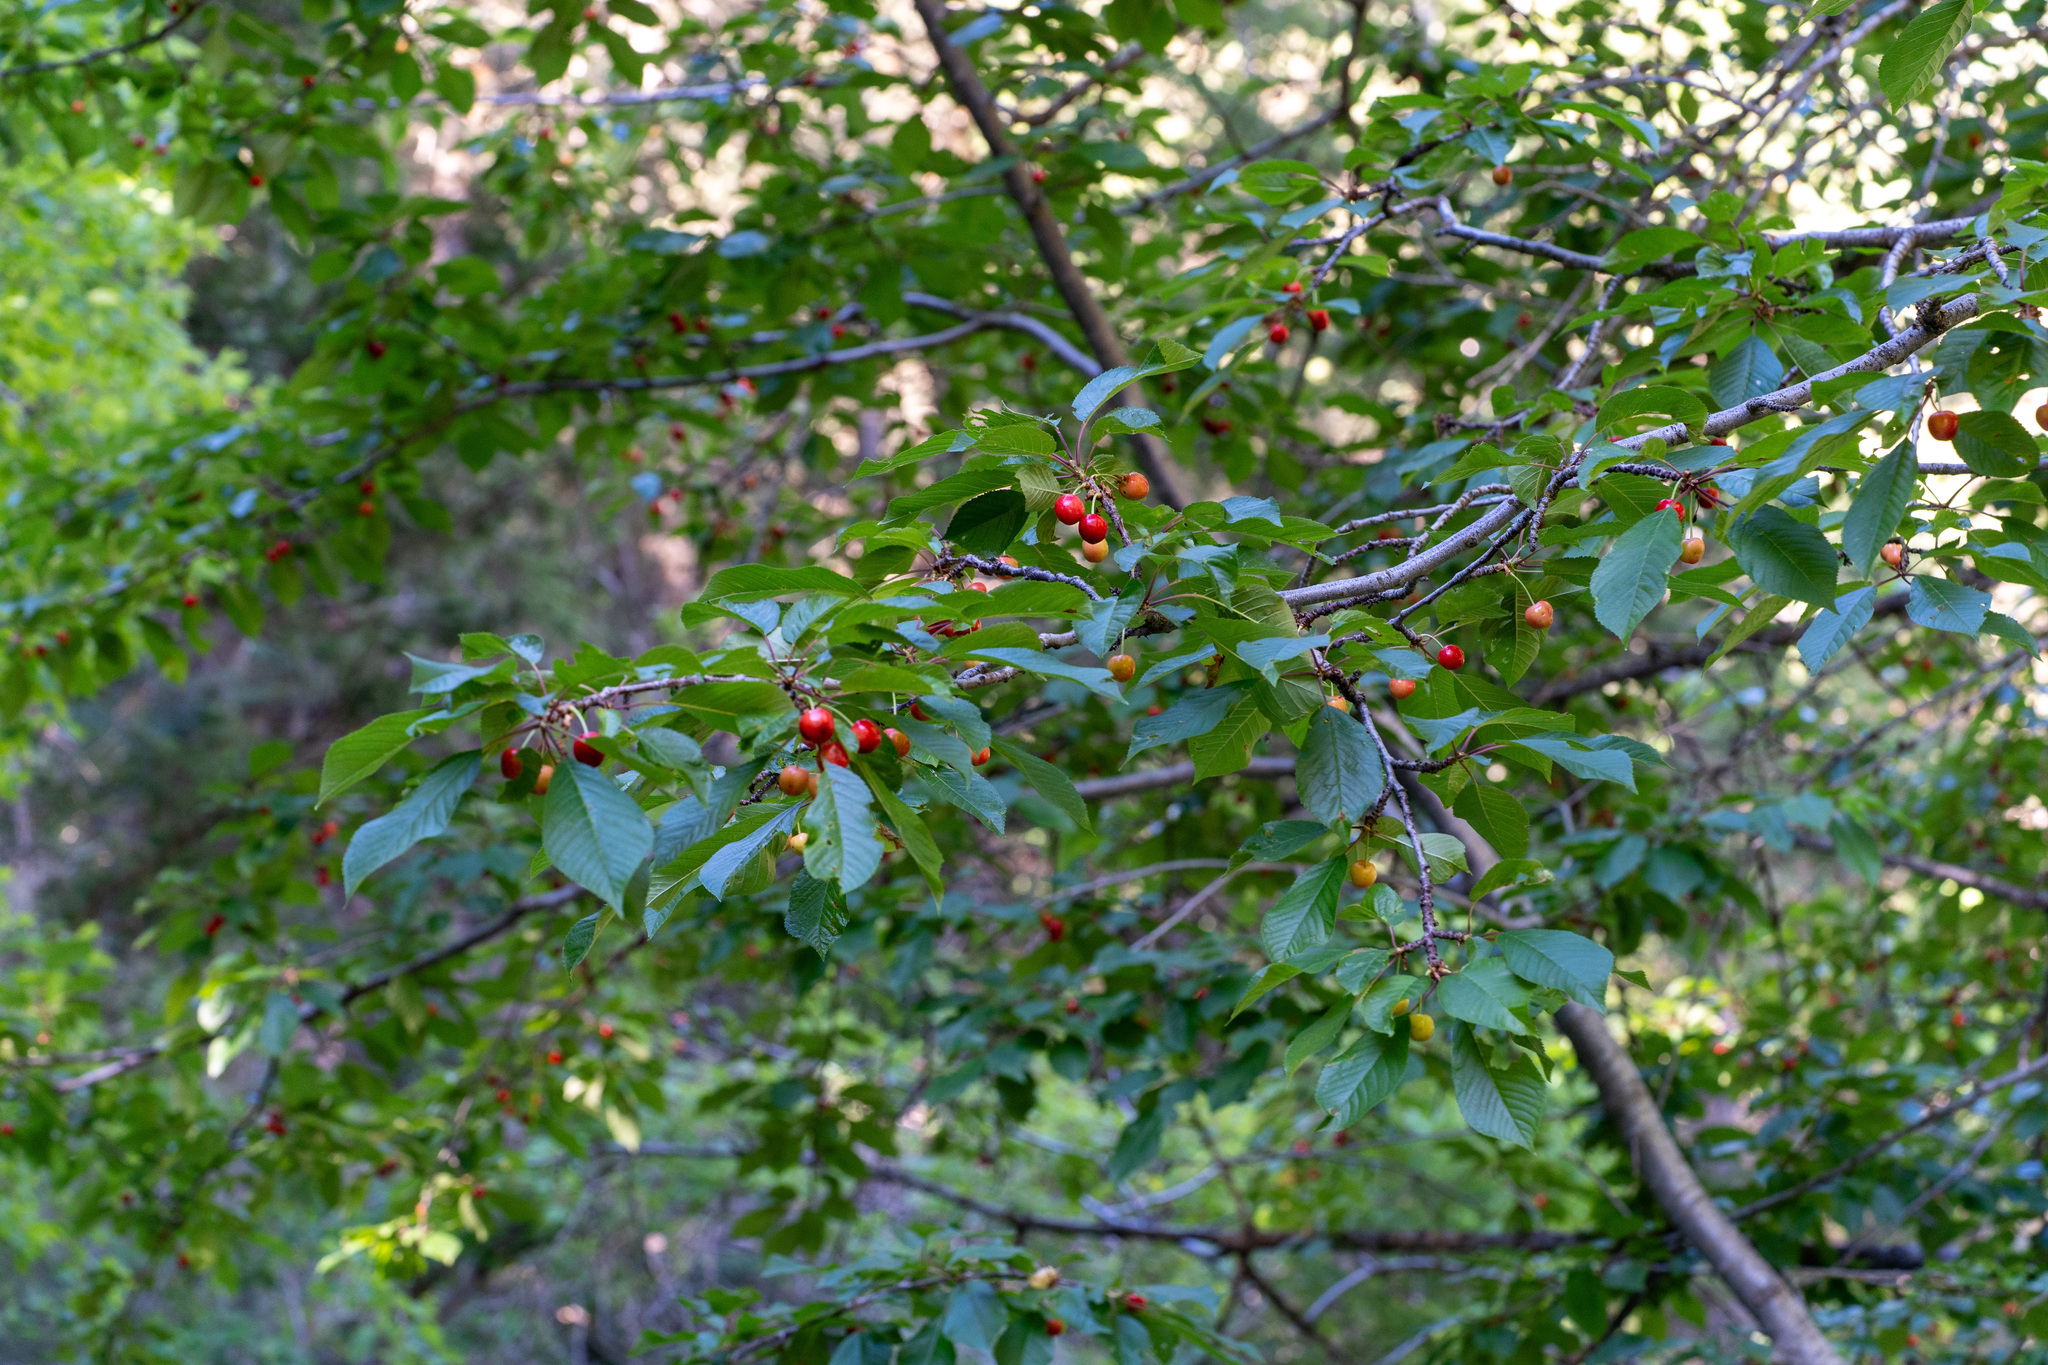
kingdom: Plantae
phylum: Tracheophyta
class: Magnoliopsida
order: Rosales
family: Rosaceae
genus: Prunus
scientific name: Prunus avium
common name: Sweet cherry
